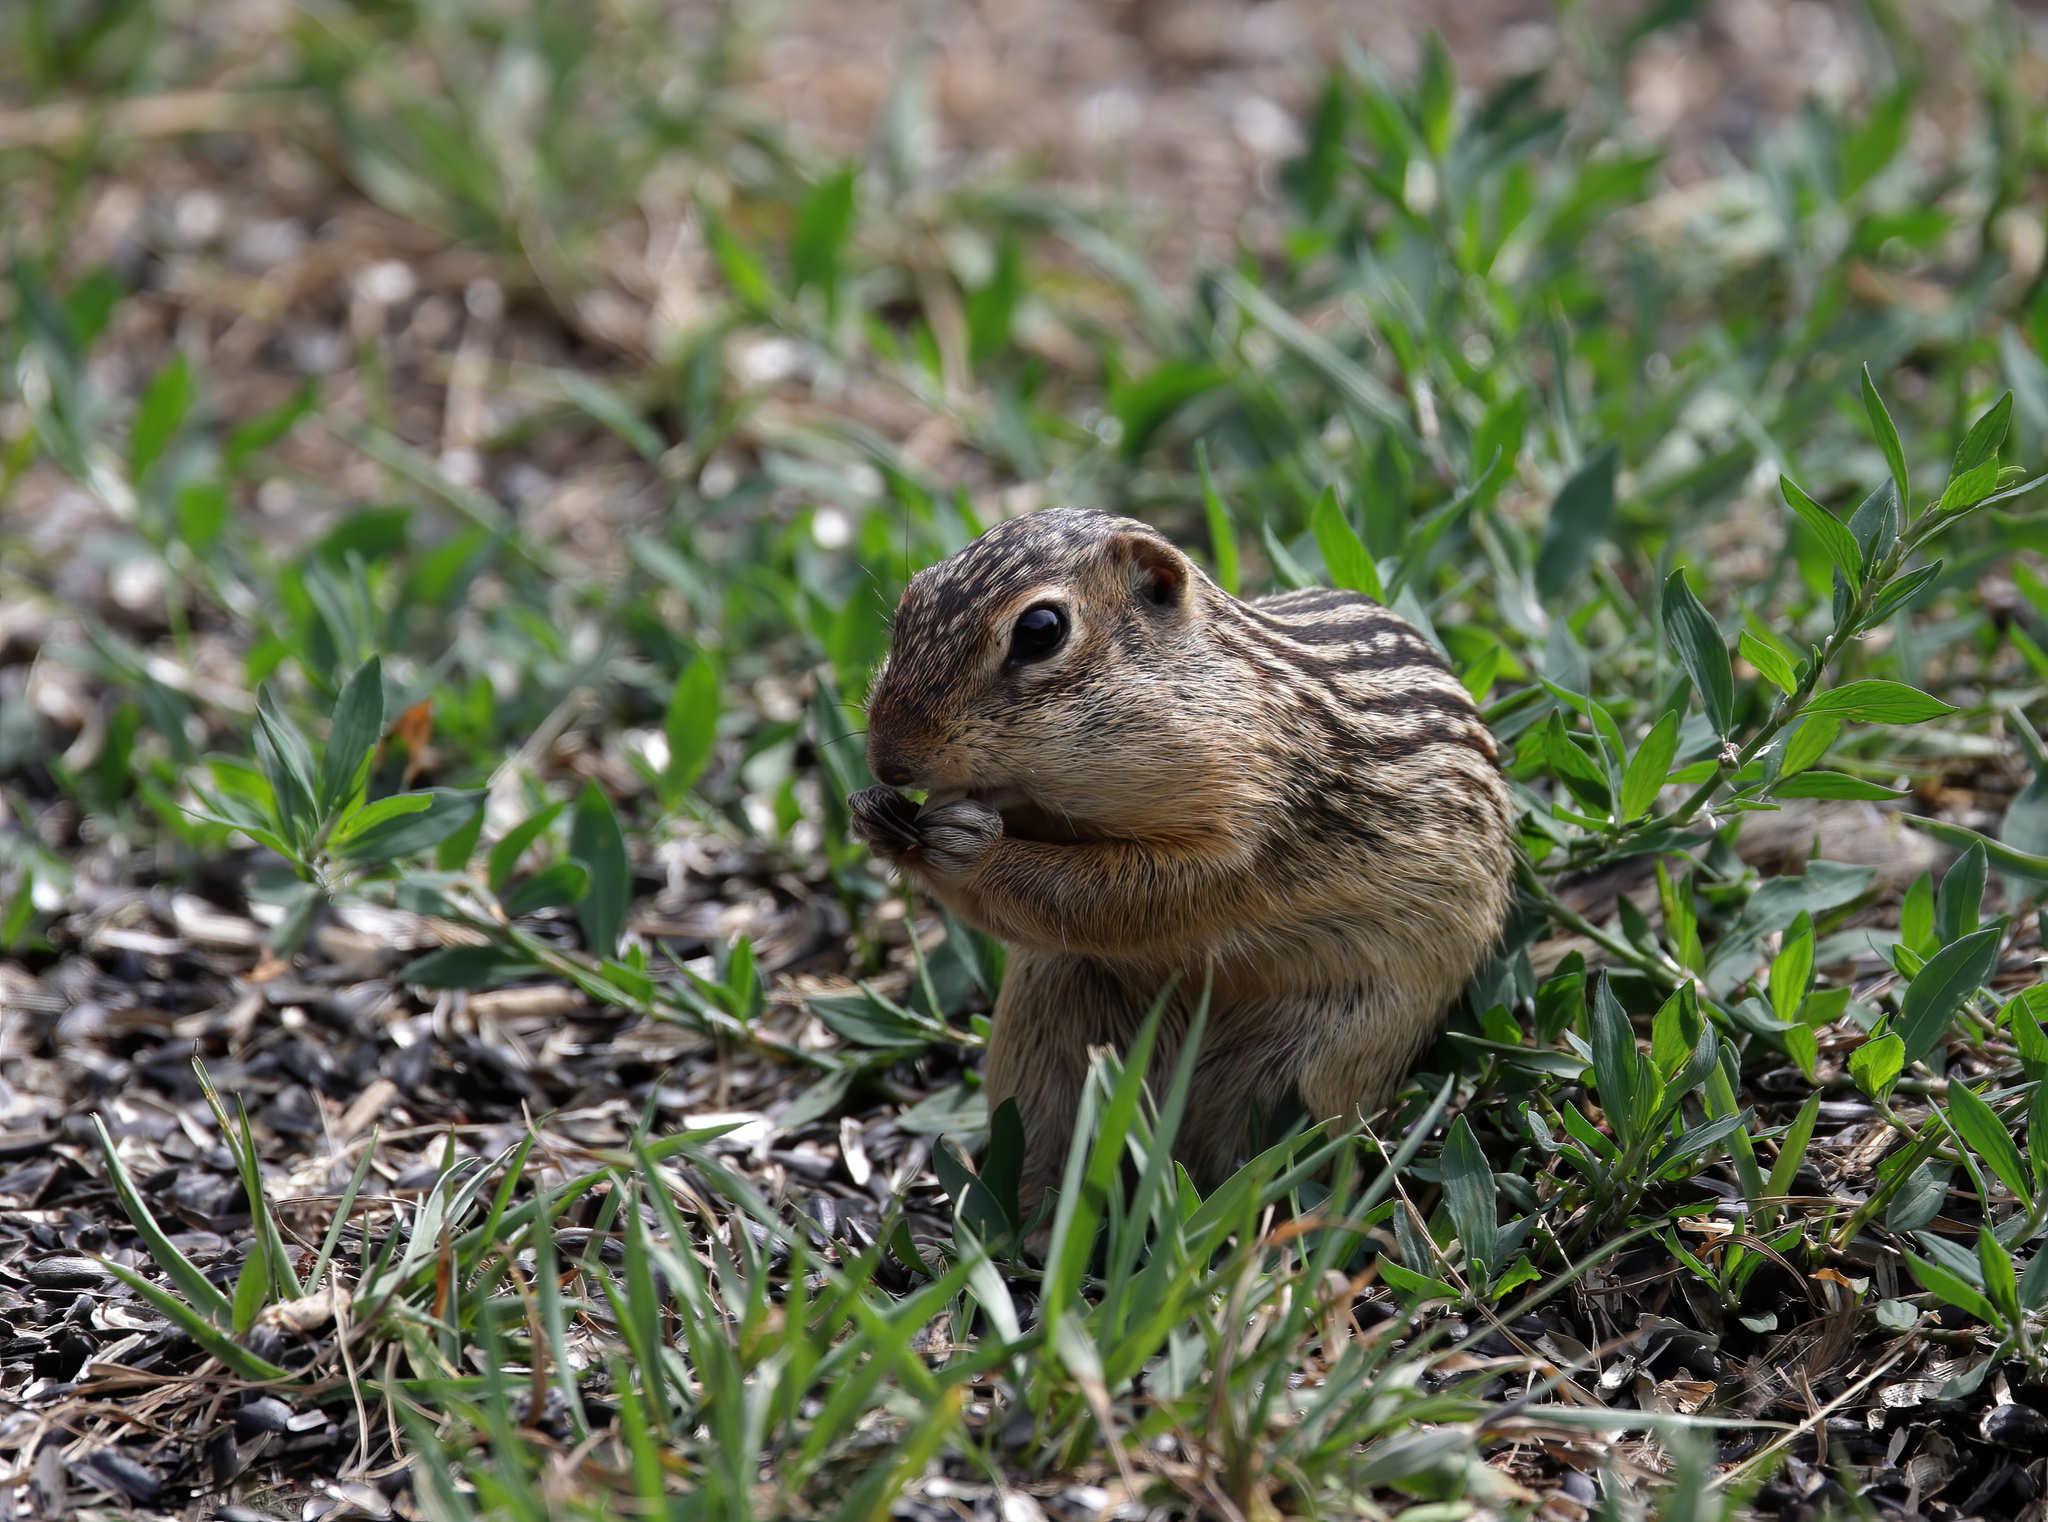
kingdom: Animalia
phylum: Chordata
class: Mammalia
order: Rodentia
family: Sciuridae
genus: Ictidomys
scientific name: Ictidomys tridecemlineatus
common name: Thirteen-lined ground squirrel
